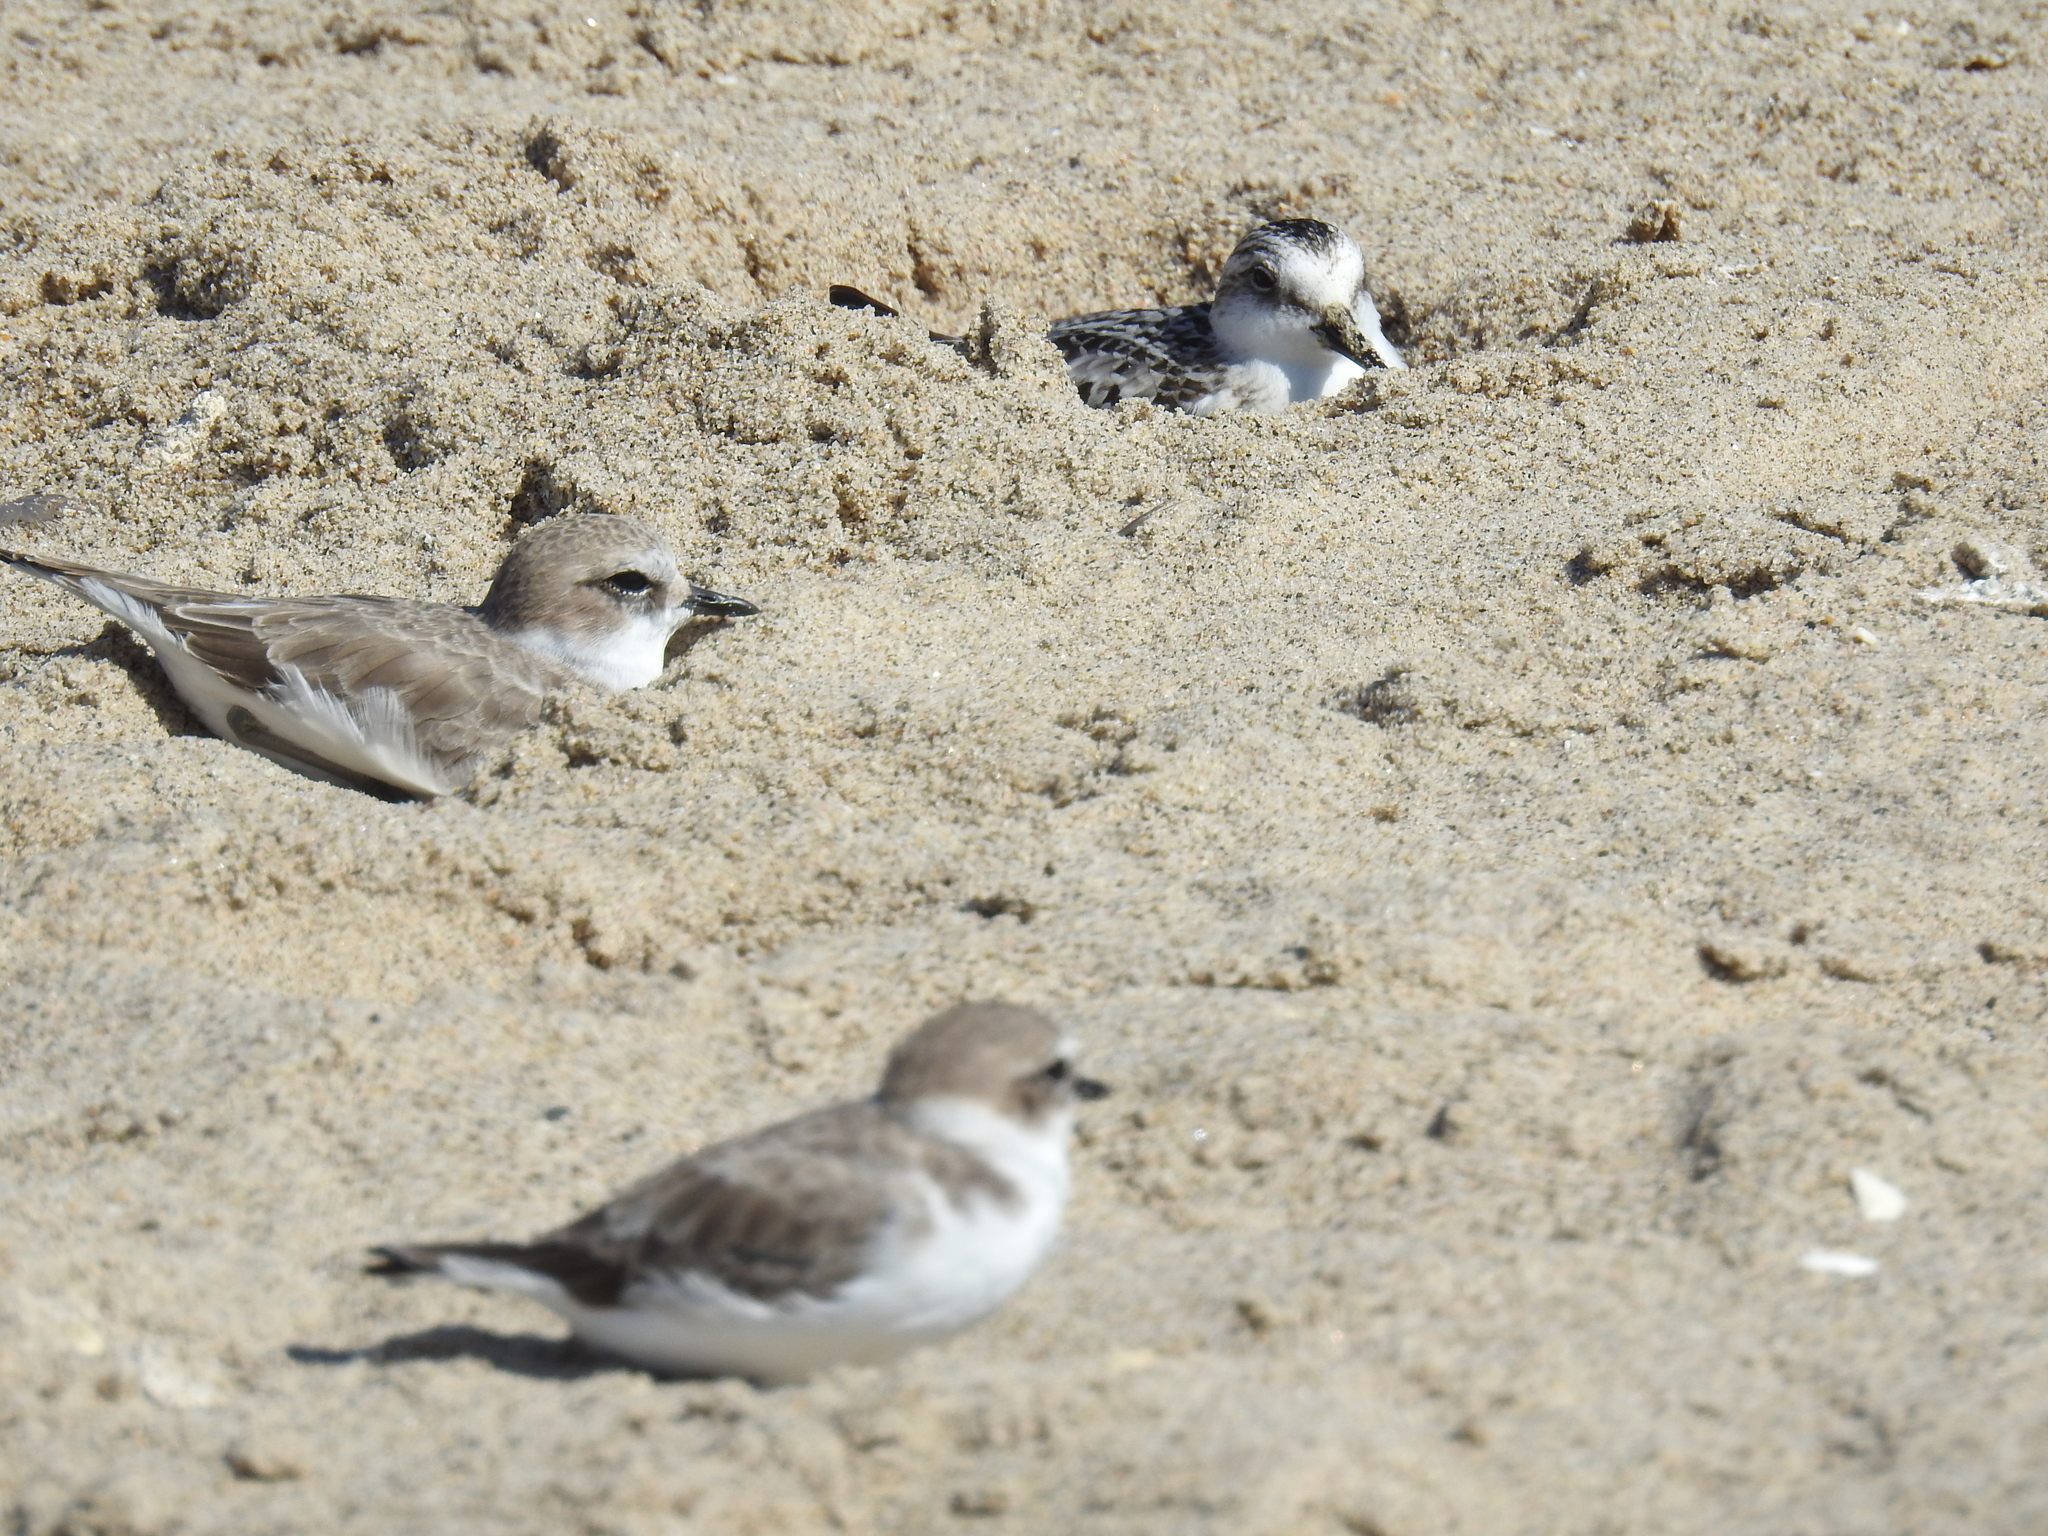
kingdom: Animalia
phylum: Chordata
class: Aves
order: Charadriiformes
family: Charadriidae
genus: Anarhynchus
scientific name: Anarhynchus
